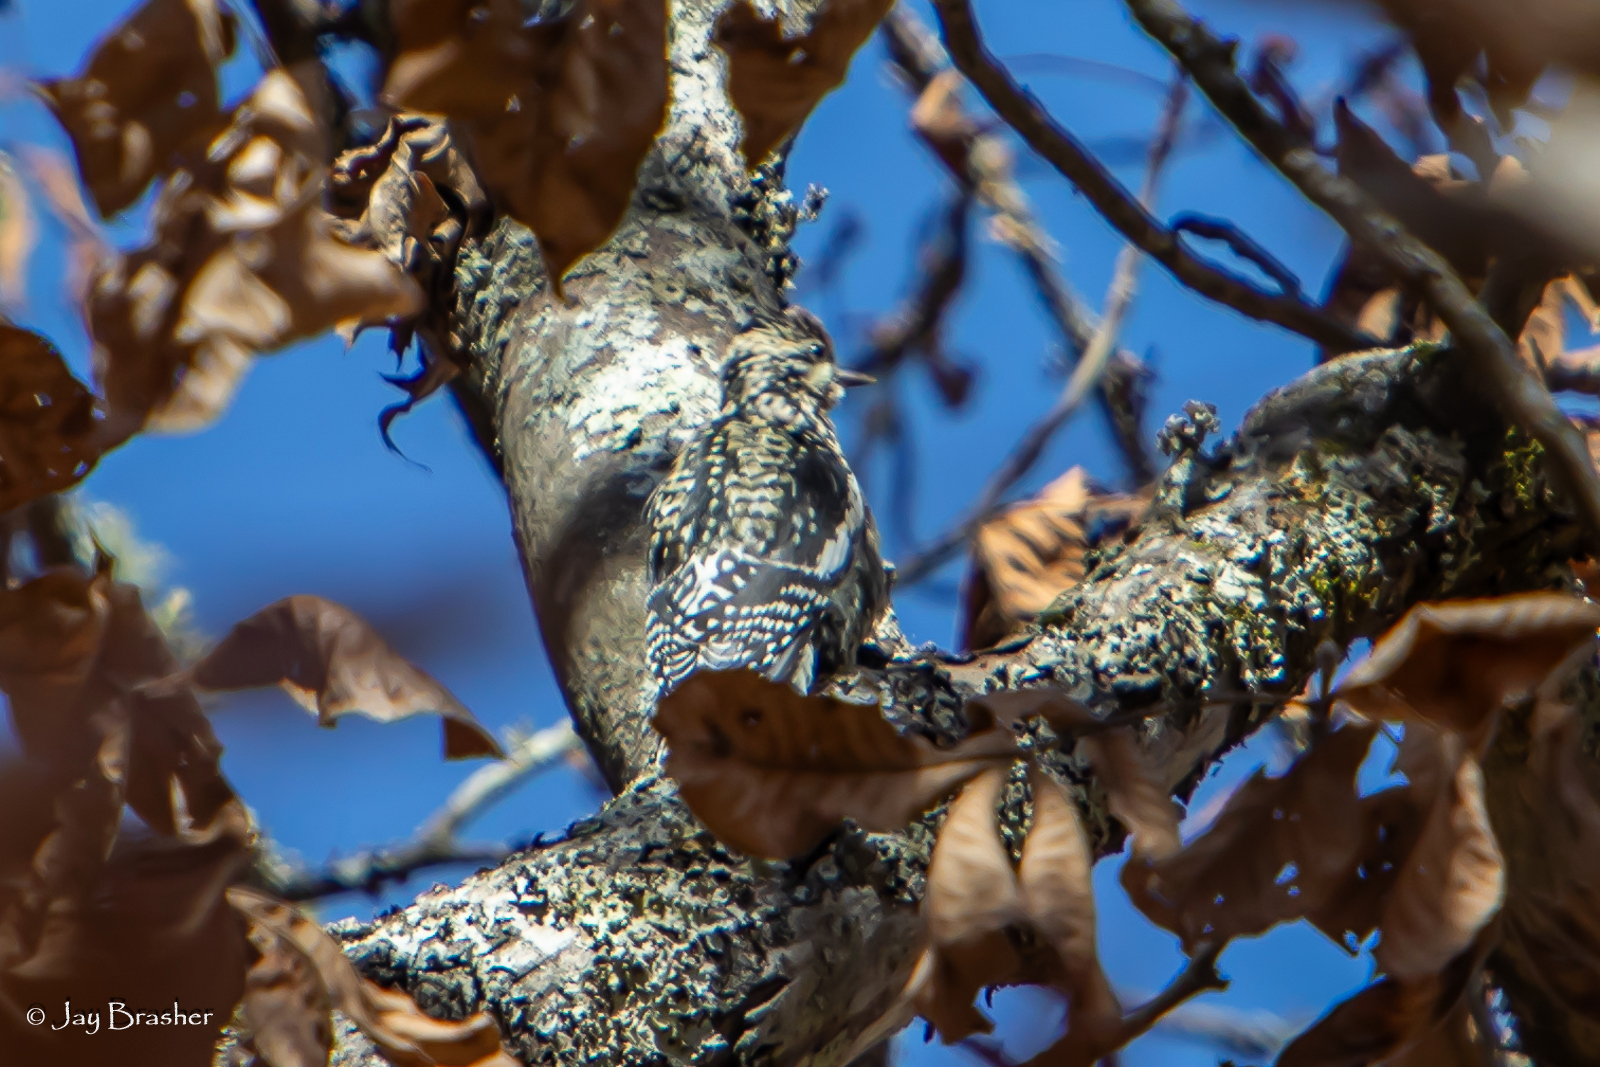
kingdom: Animalia
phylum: Chordata
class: Aves
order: Piciformes
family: Picidae
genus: Sphyrapicus
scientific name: Sphyrapicus varius
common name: Yellow-bellied sapsucker
